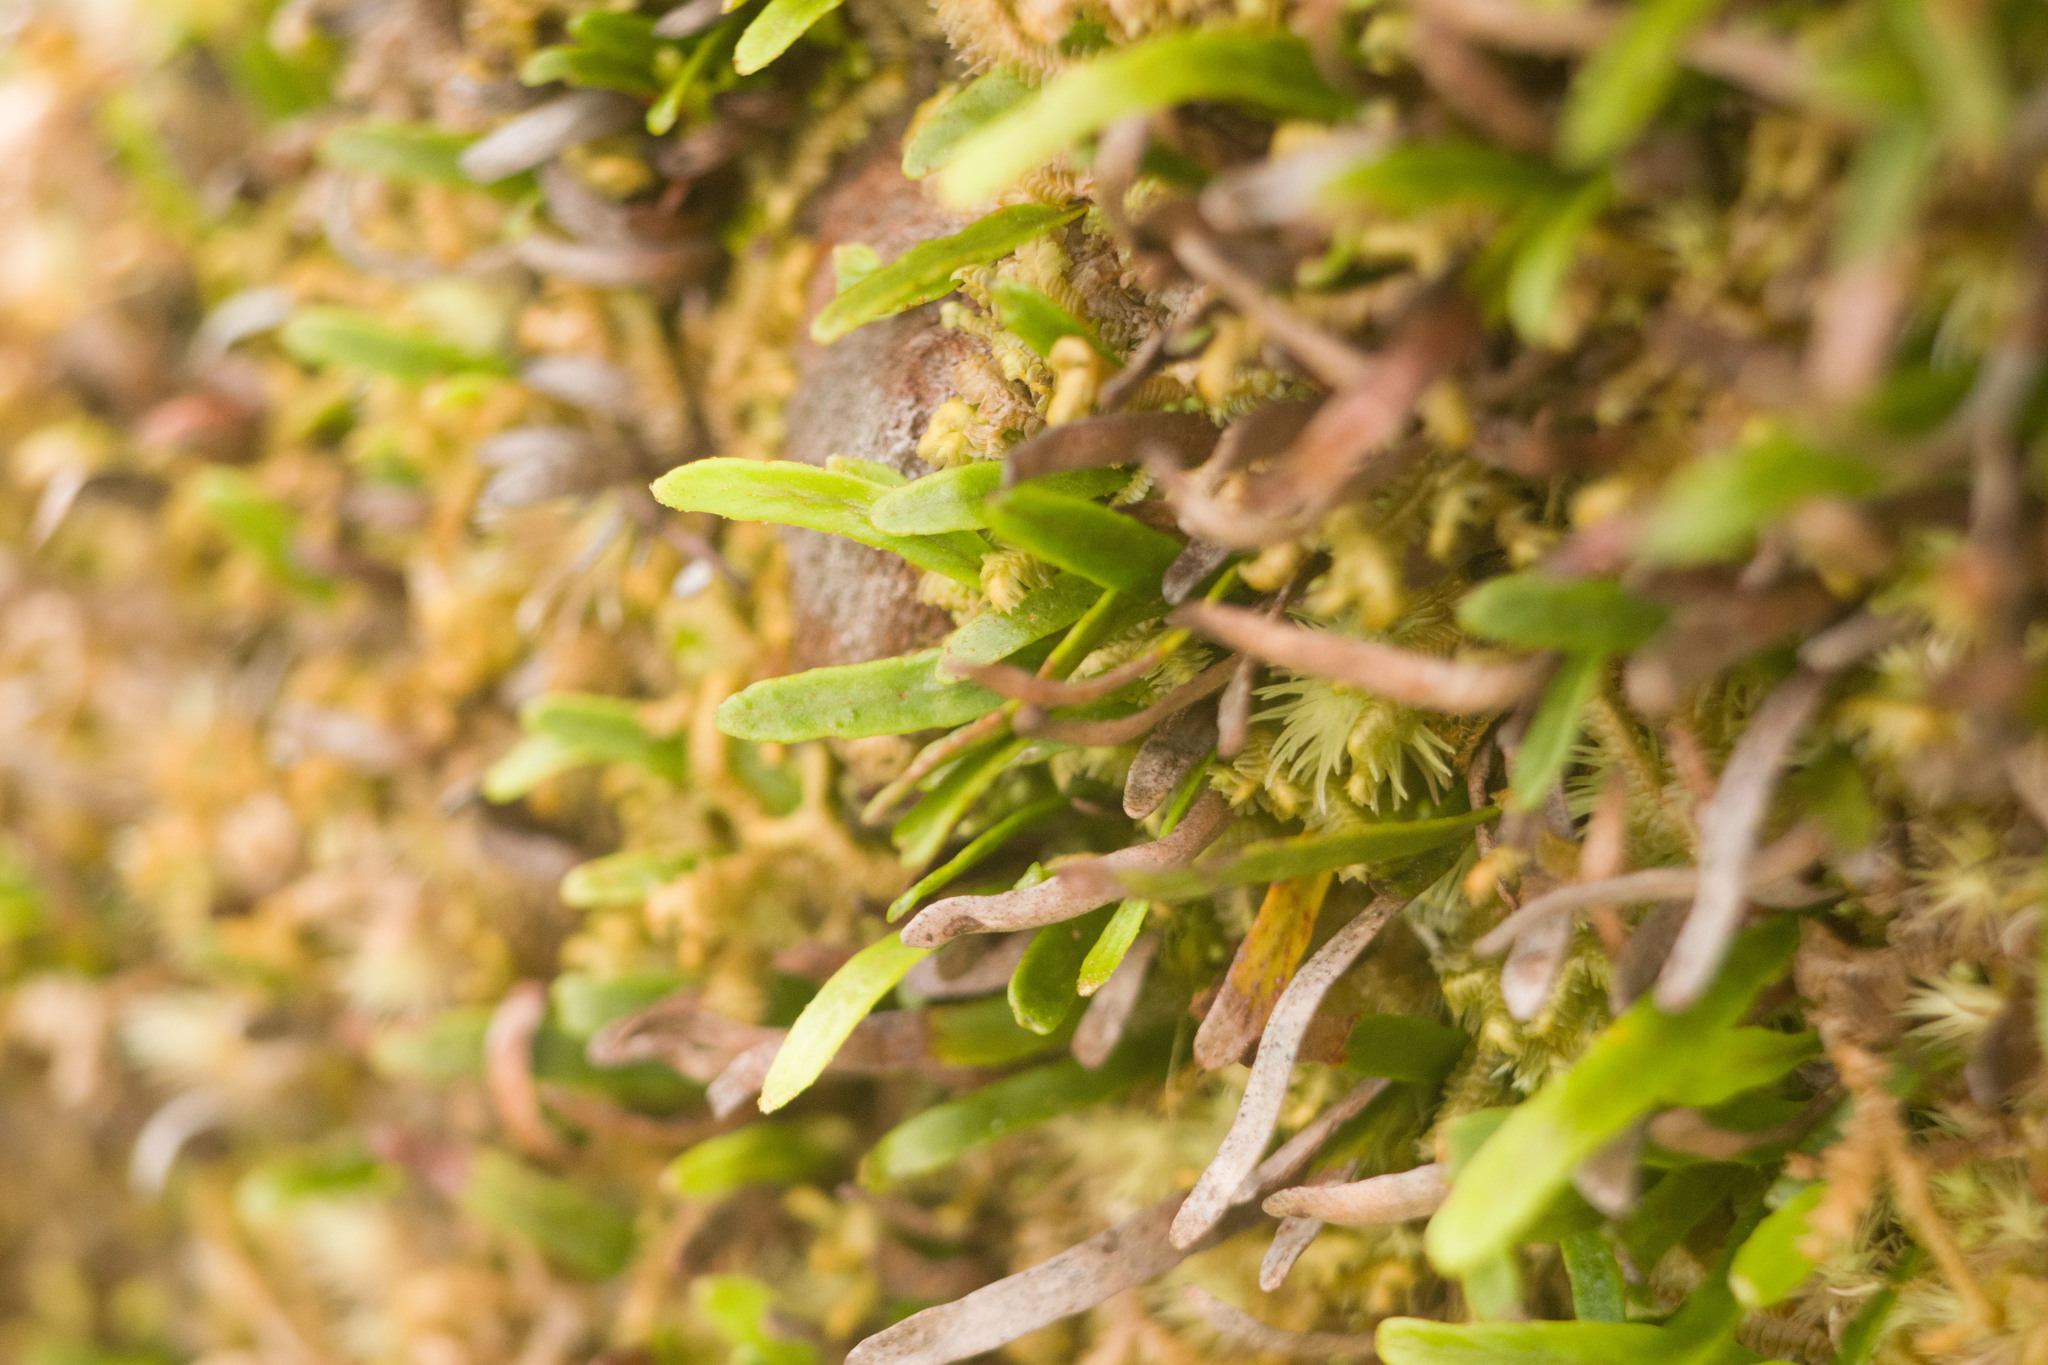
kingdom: Plantae
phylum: Tracheophyta
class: Polypodiopsida
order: Polypodiales
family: Polypodiaceae
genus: Adenophorus
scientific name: Adenophorus tenellus
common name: Kolokolo
